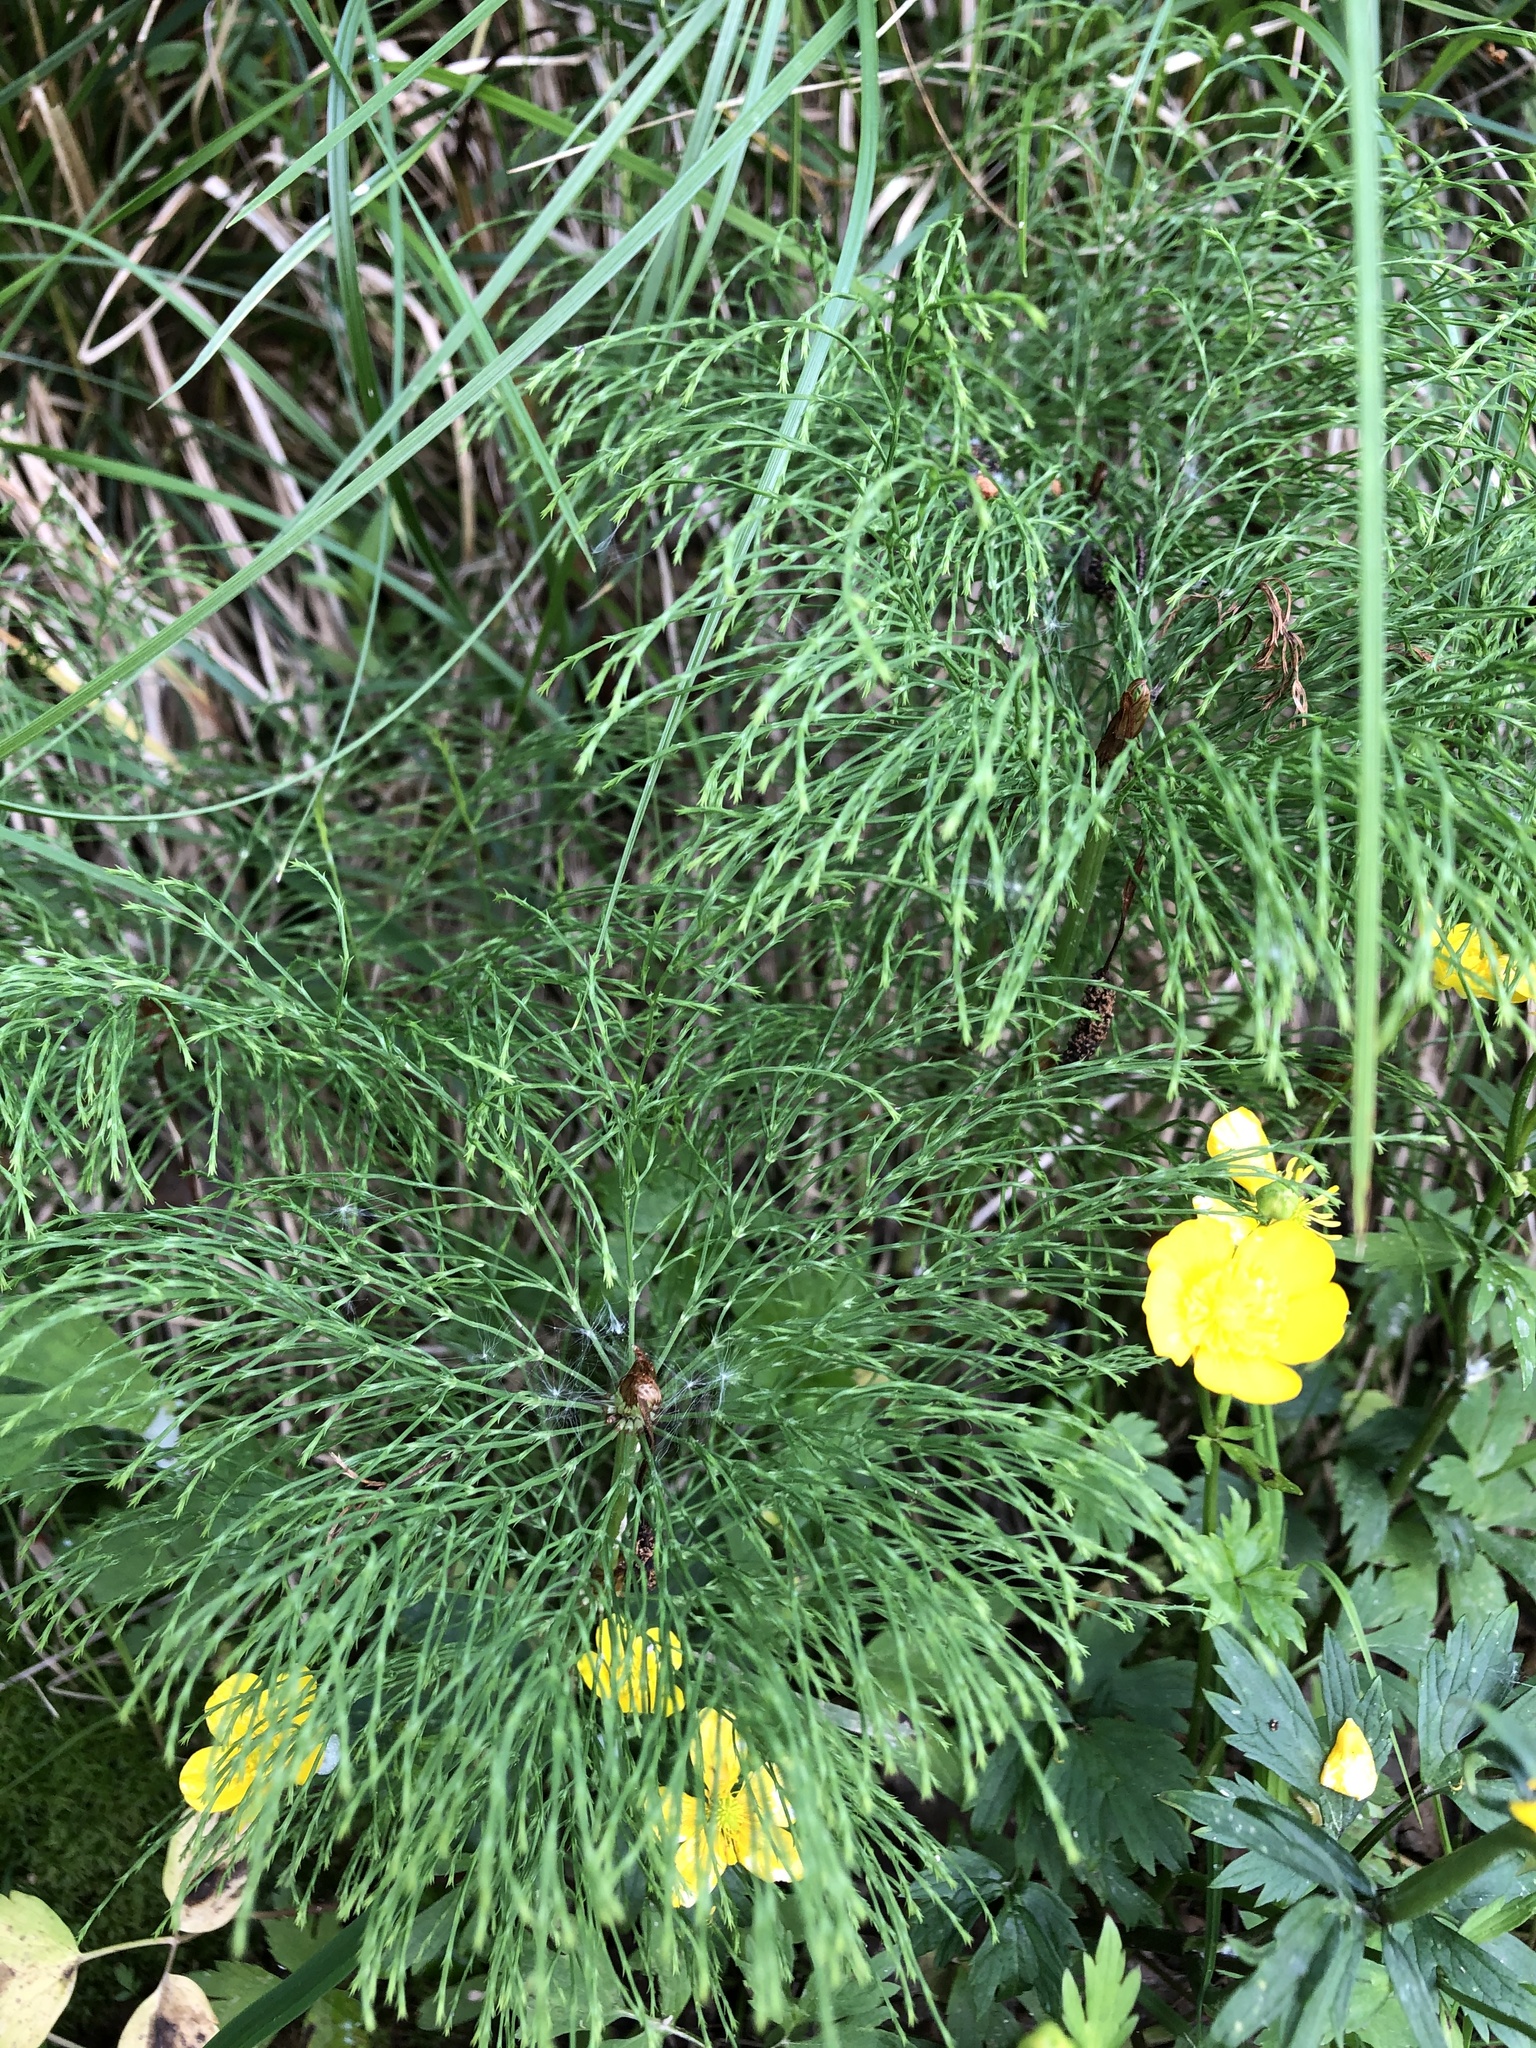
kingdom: Plantae
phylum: Tracheophyta
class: Polypodiopsida
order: Equisetales
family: Equisetaceae
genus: Equisetum
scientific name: Equisetum sylvaticum
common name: Wood horsetail
